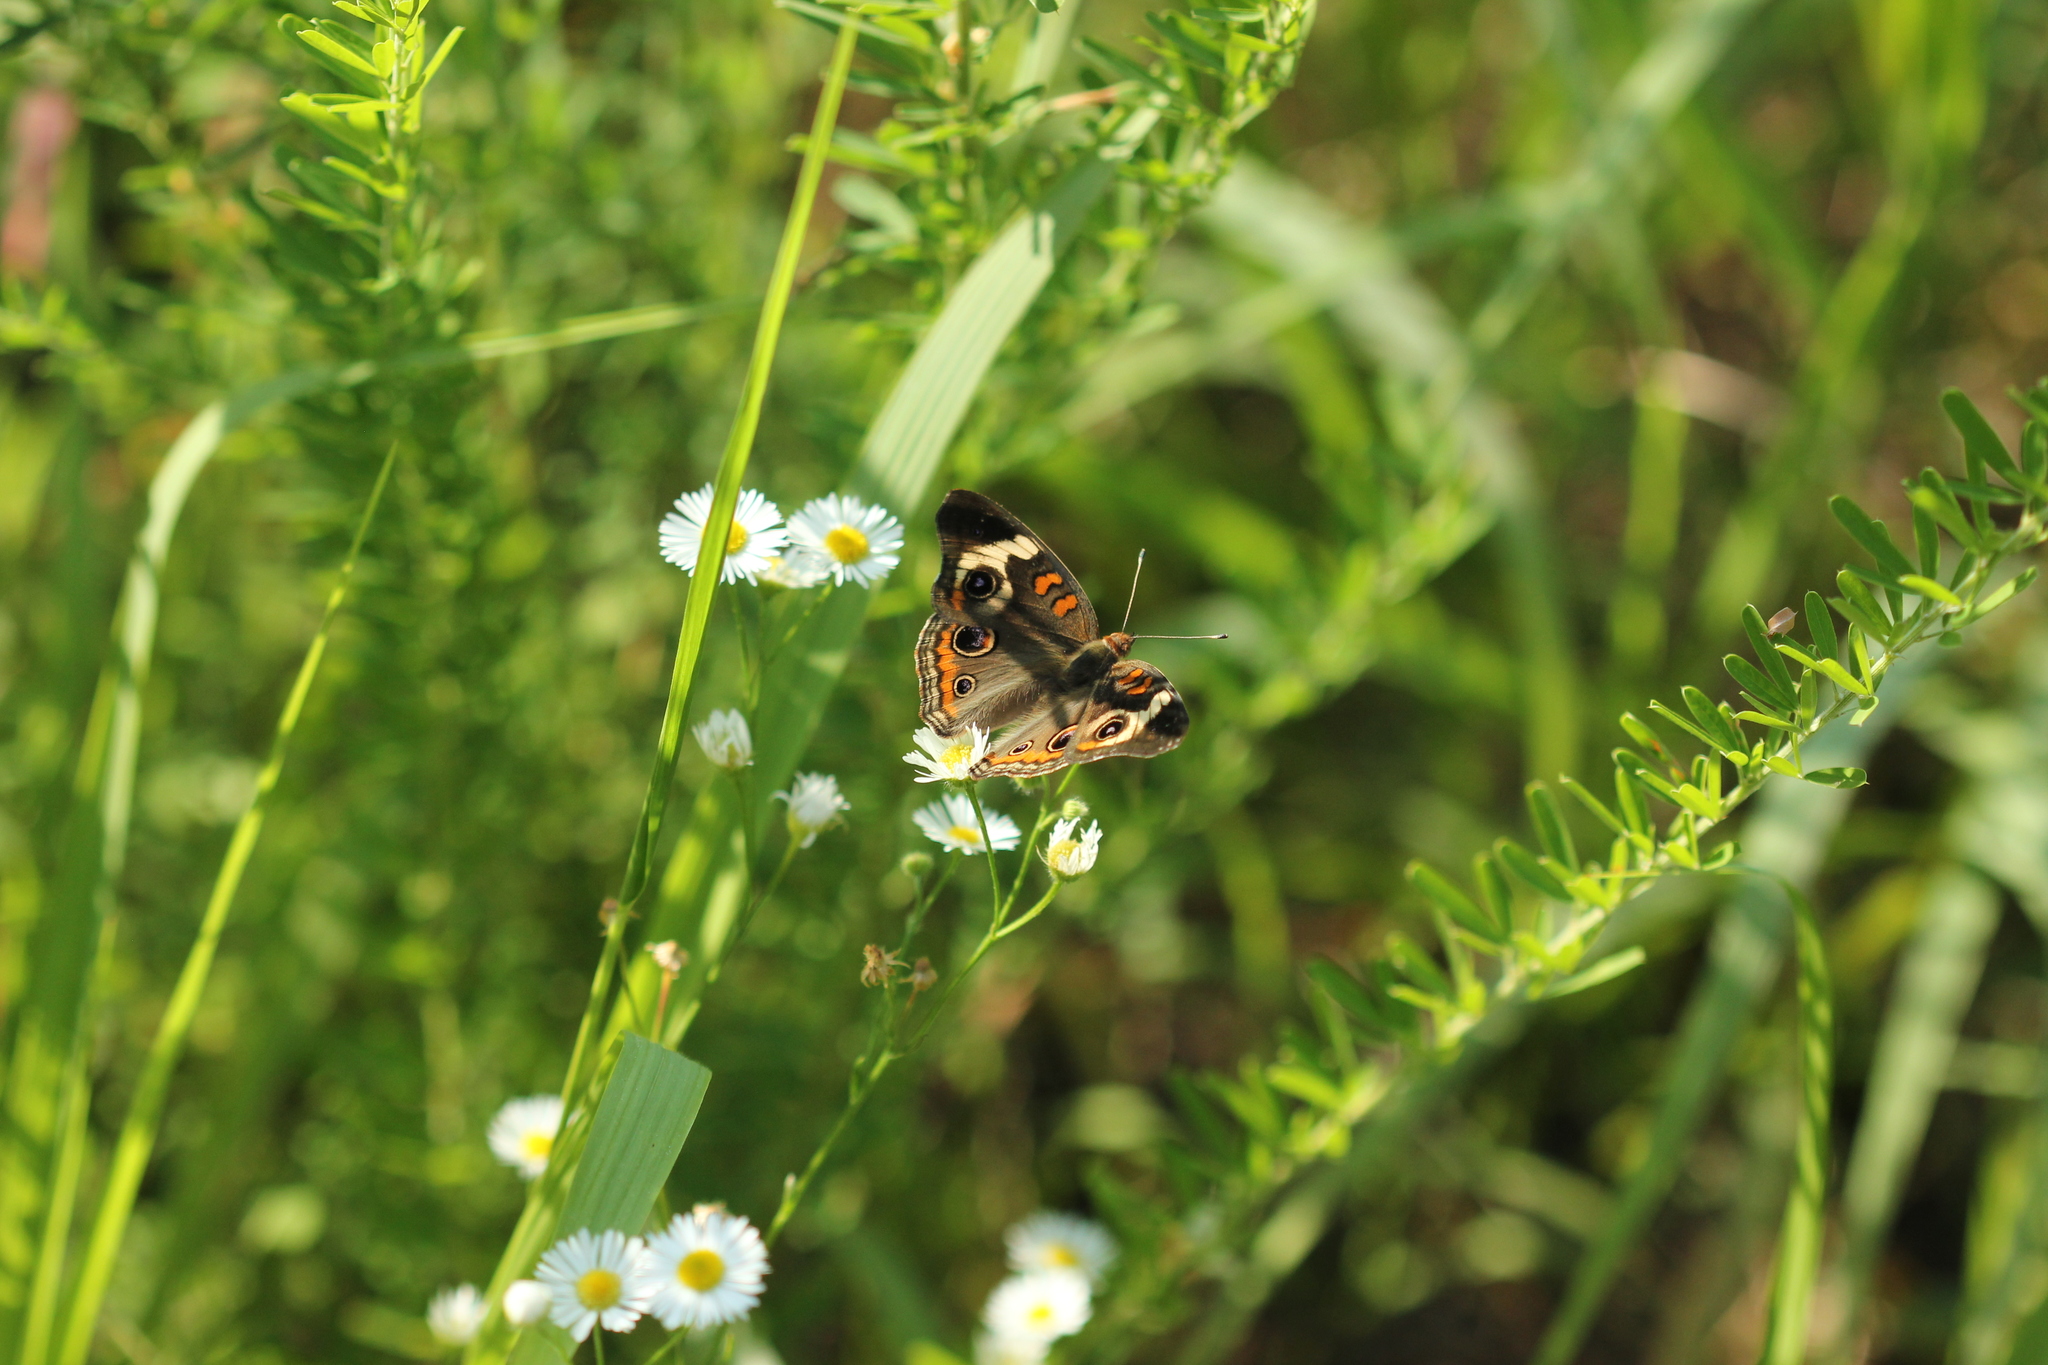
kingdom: Animalia
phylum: Arthropoda
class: Insecta
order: Lepidoptera
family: Nymphalidae
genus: Junonia
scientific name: Junonia coenia
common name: Common buckeye
